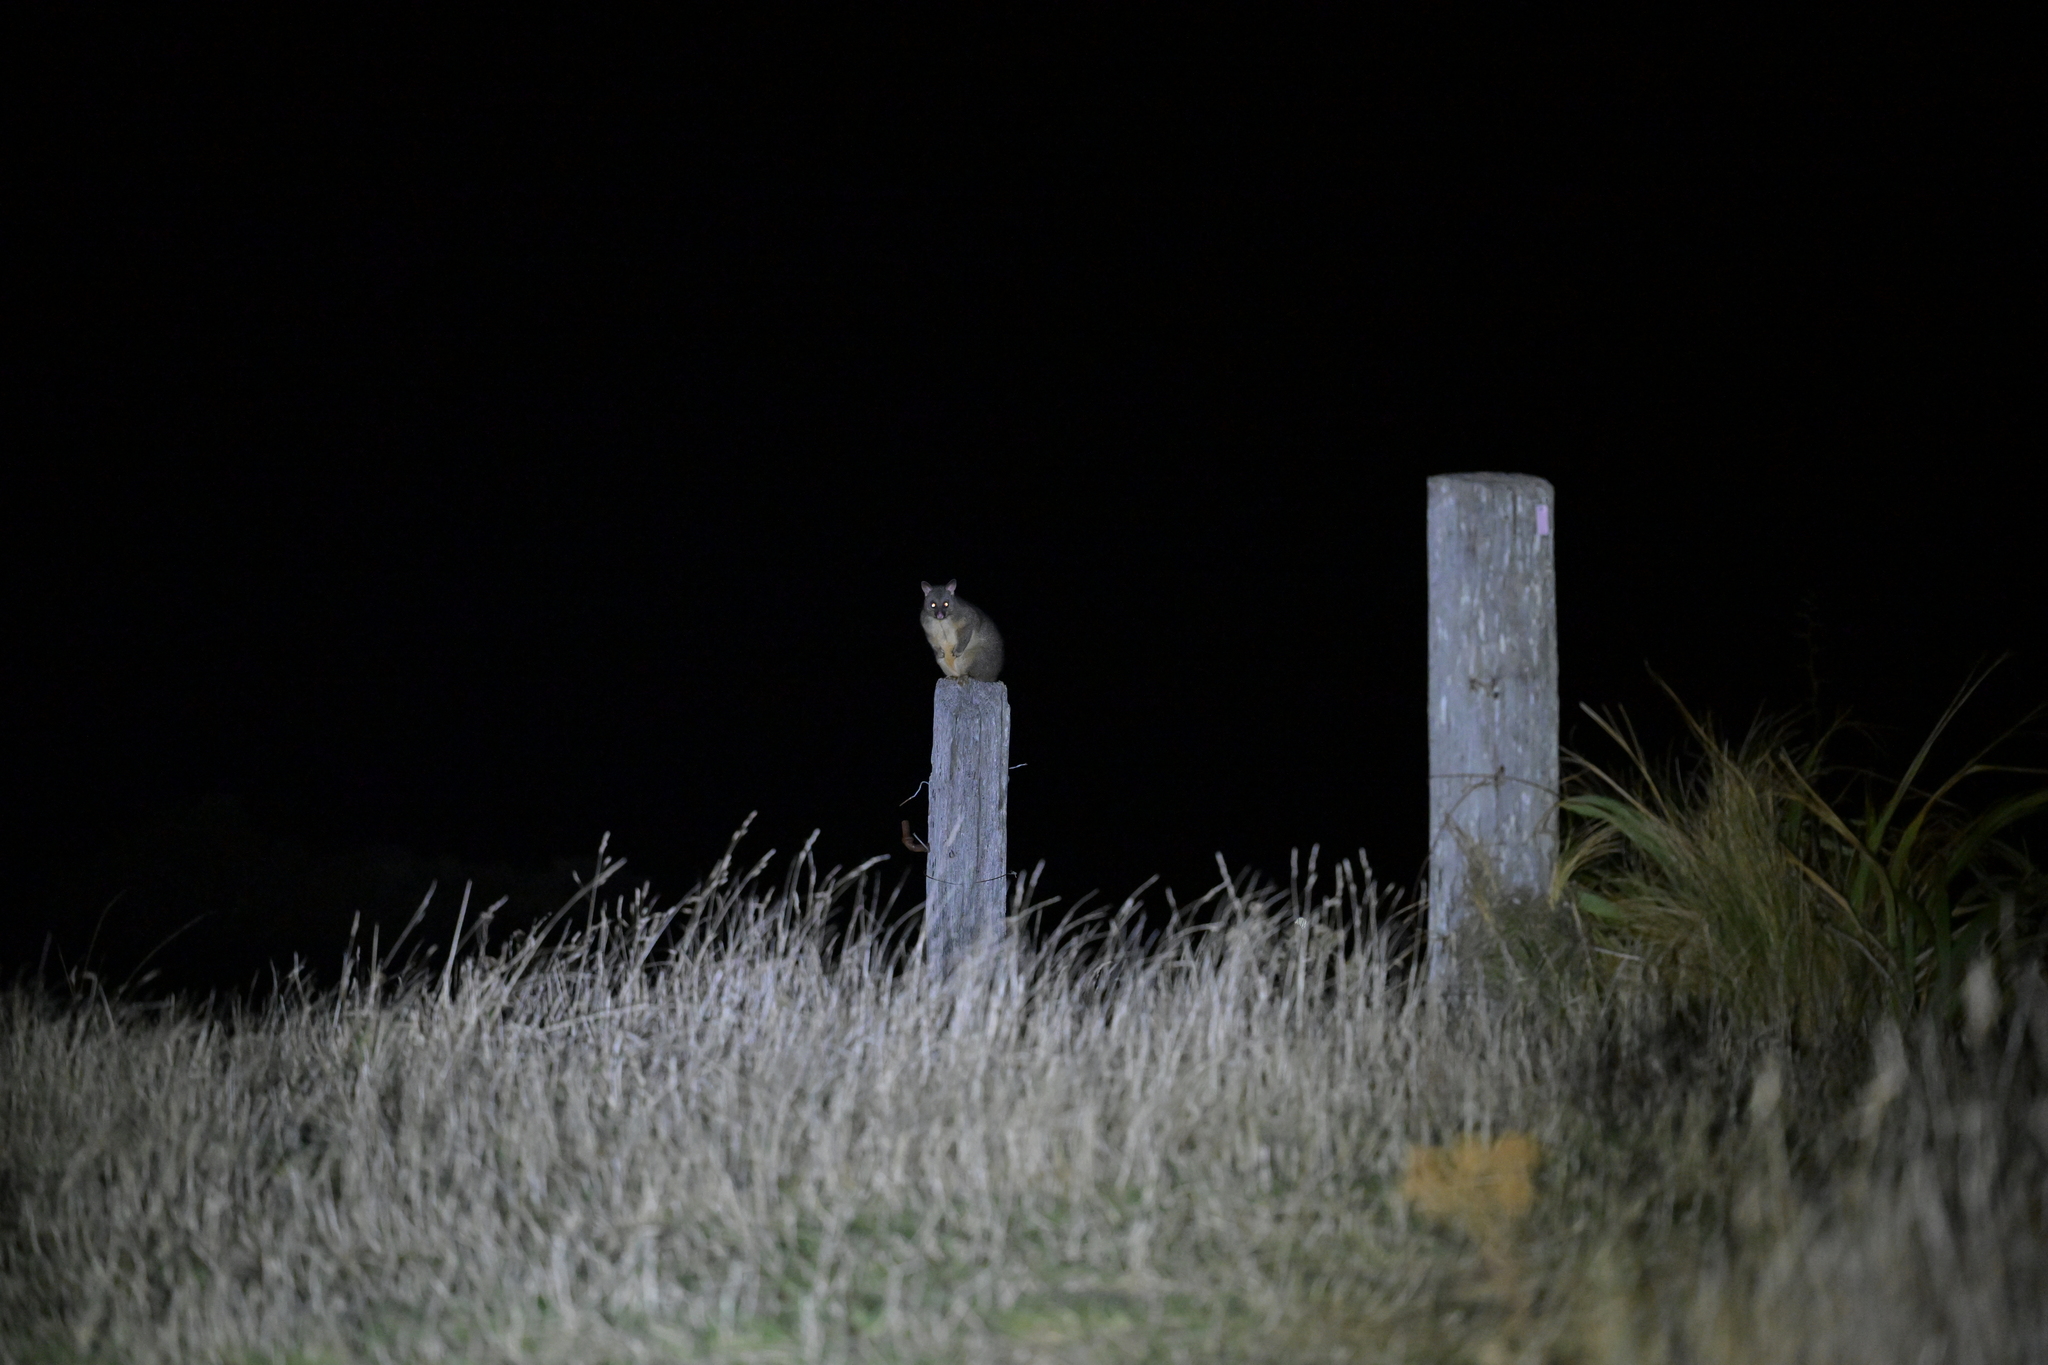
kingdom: Animalia
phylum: Chordata
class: Mammalia
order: Diprotodontia
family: Phalangeridae
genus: Trichosurus
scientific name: Trichosurus vulpecula
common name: Common brushtail
